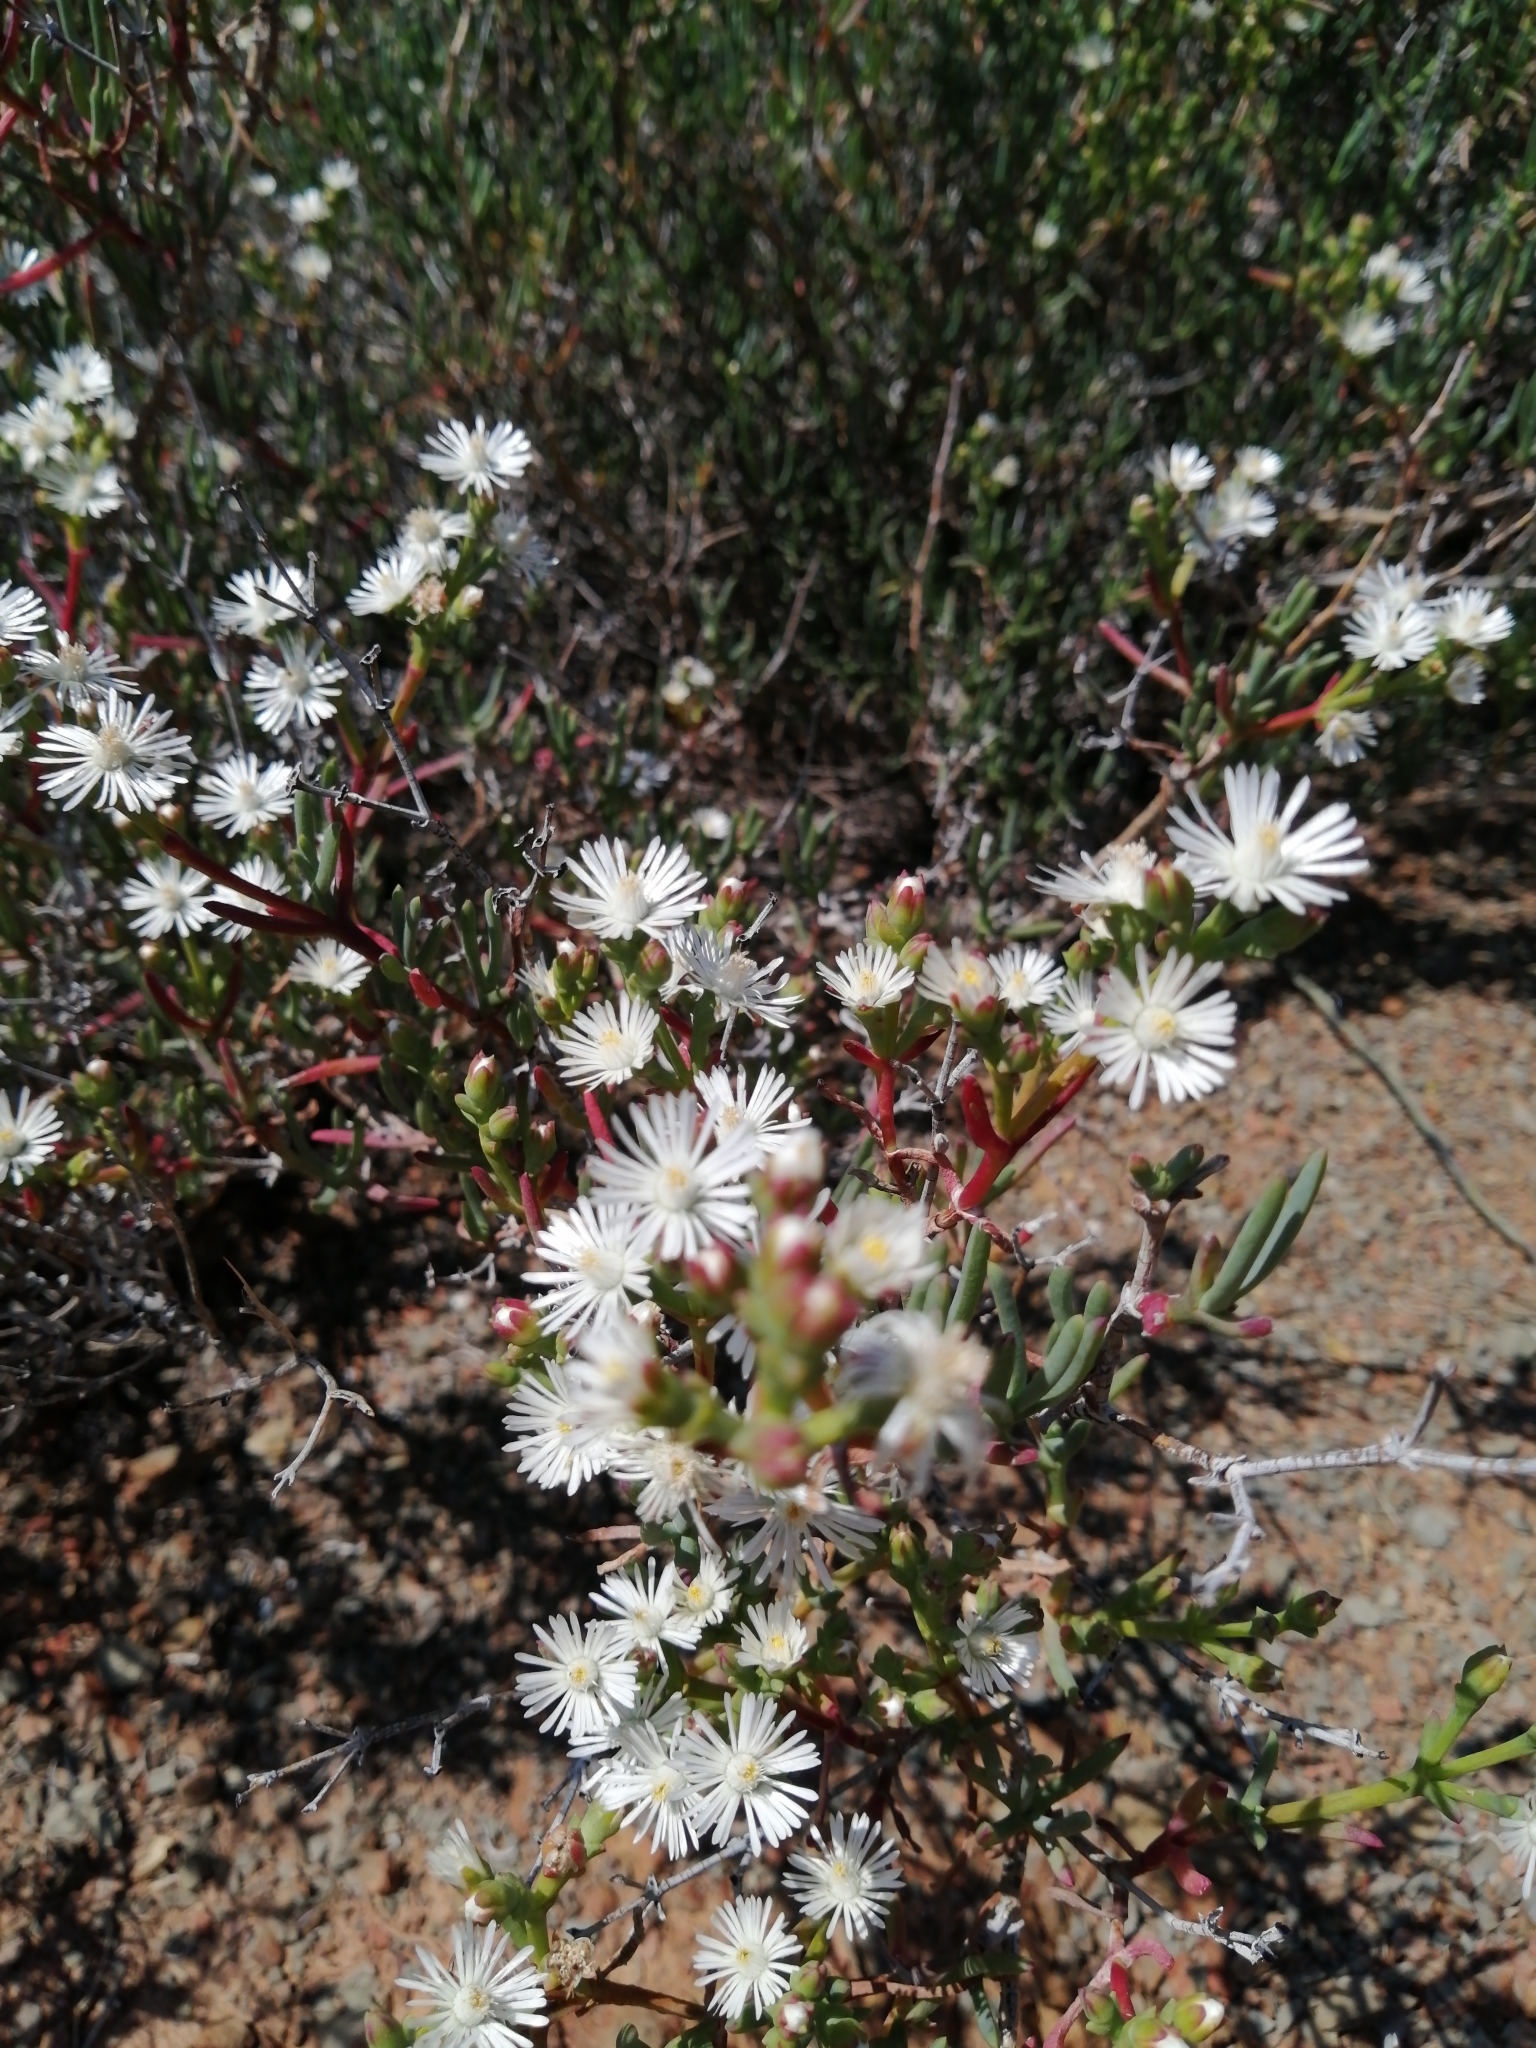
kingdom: Plantae
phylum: Tracheophyta
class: Magnoliopsida
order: Caryophyllales
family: Aizoaceae
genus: Ruschia
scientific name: Ruschia multiflora
